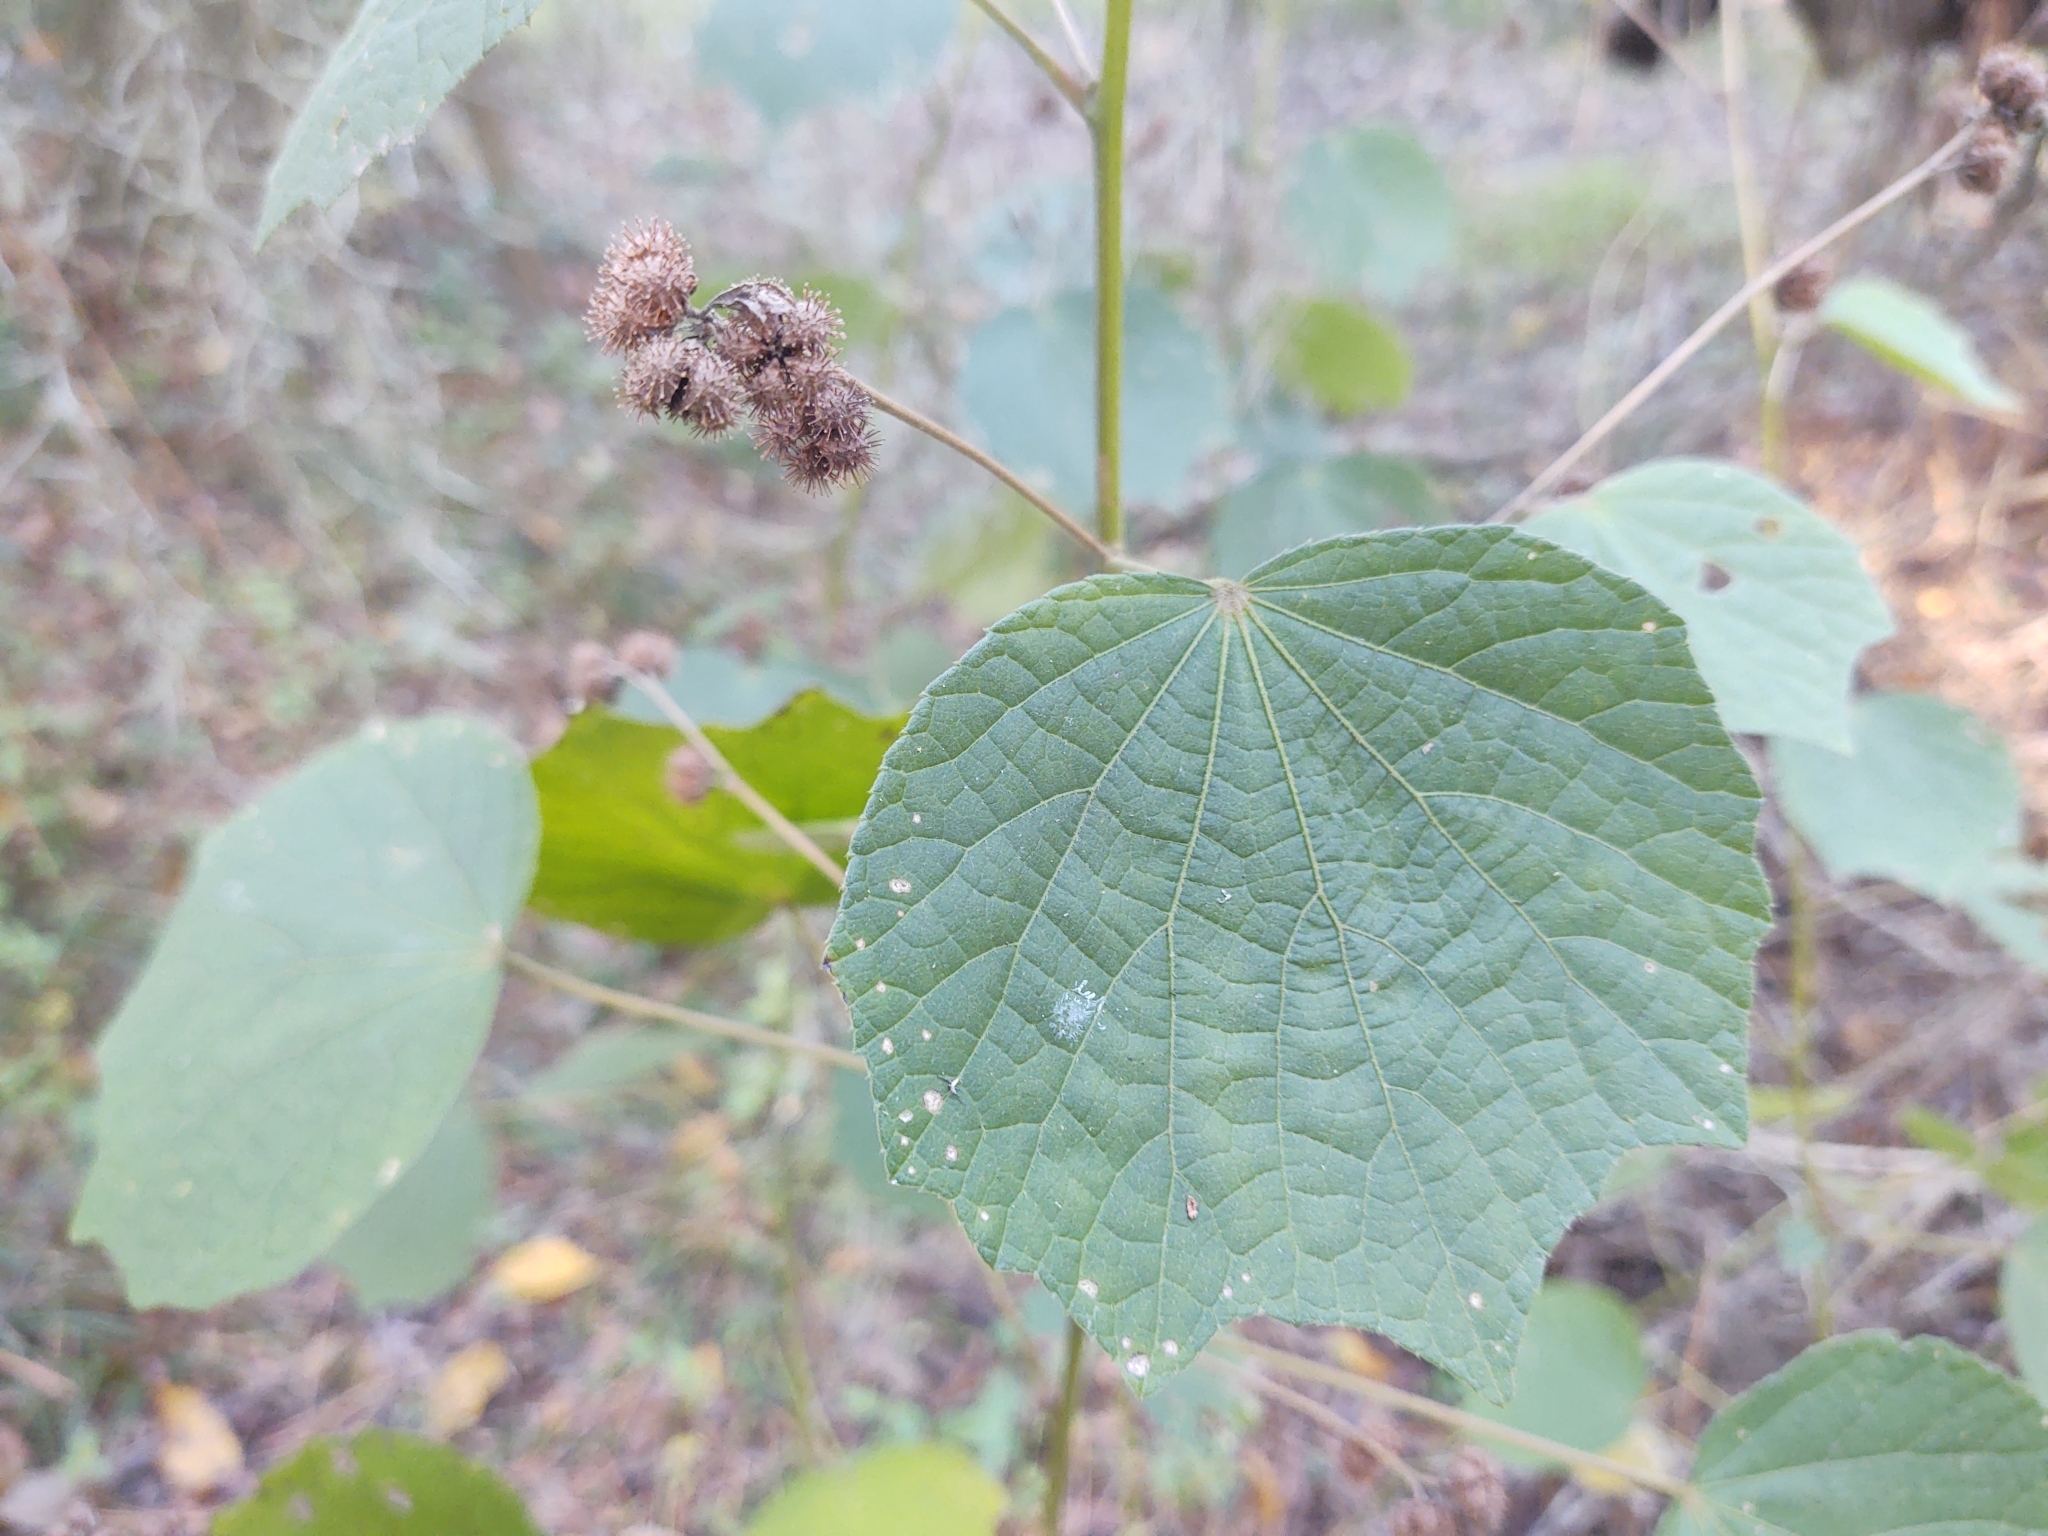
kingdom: Plantae
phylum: Tracheophyta
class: Magnoliopsida
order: Malvales
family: Malvaceae
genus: Urena
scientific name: Urena lobata
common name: Caesarweed
